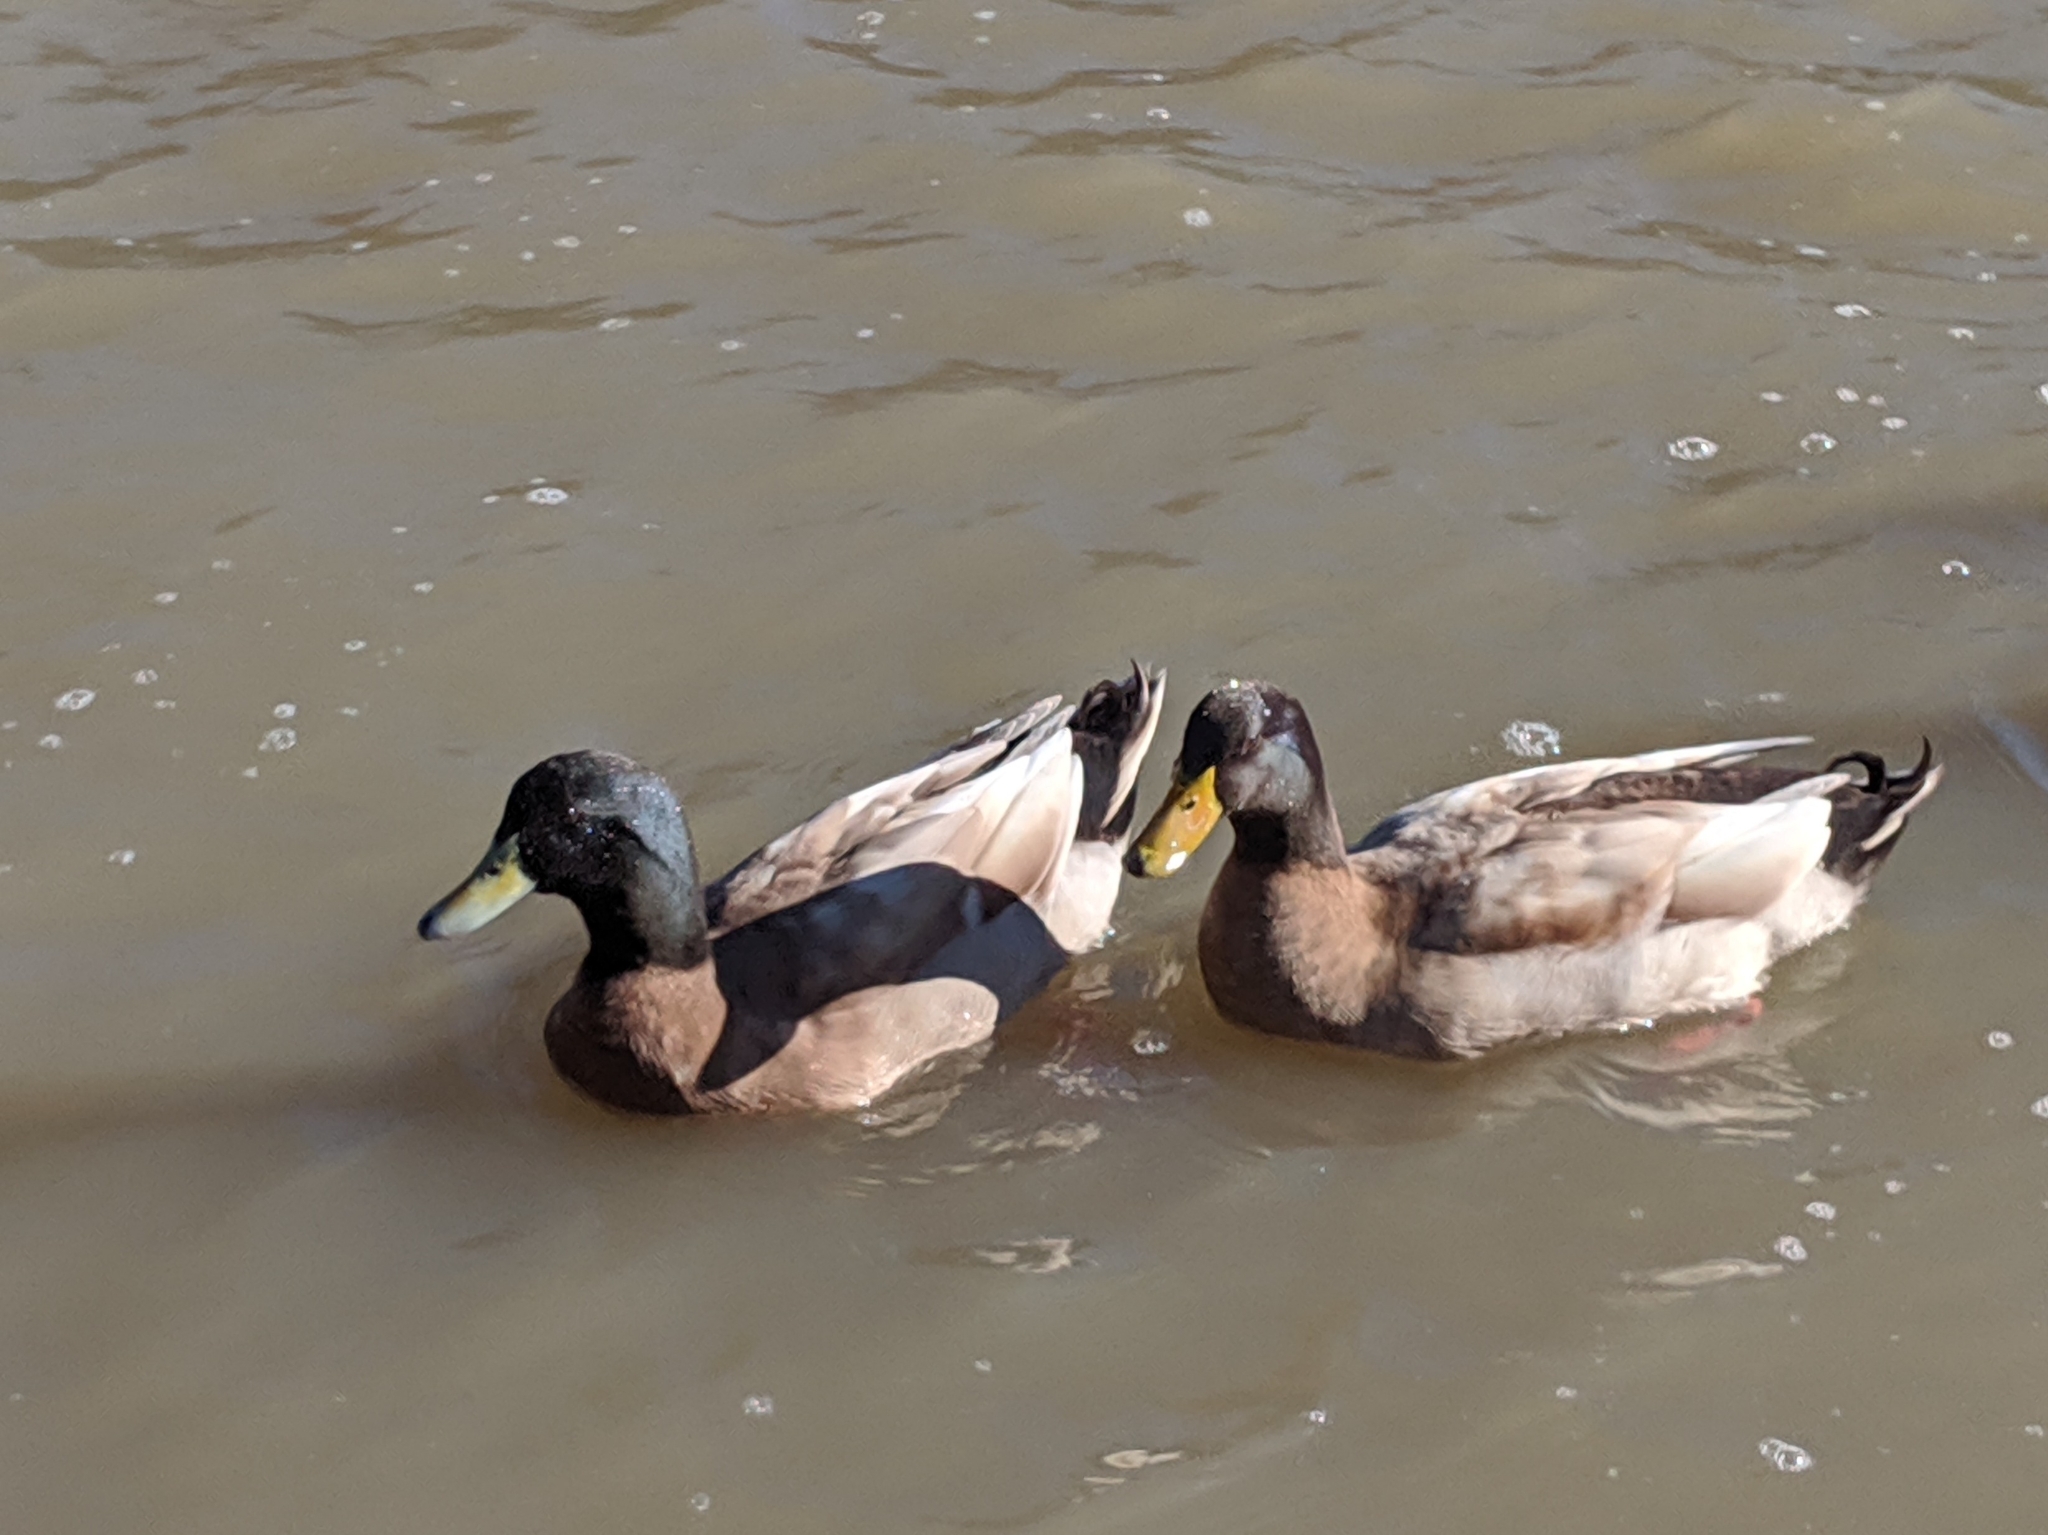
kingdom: Animalia
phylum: Chordata
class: Aves
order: Anseriformes
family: Anatidae
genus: Anas
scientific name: Anas platyrhynchos
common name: Mallard
